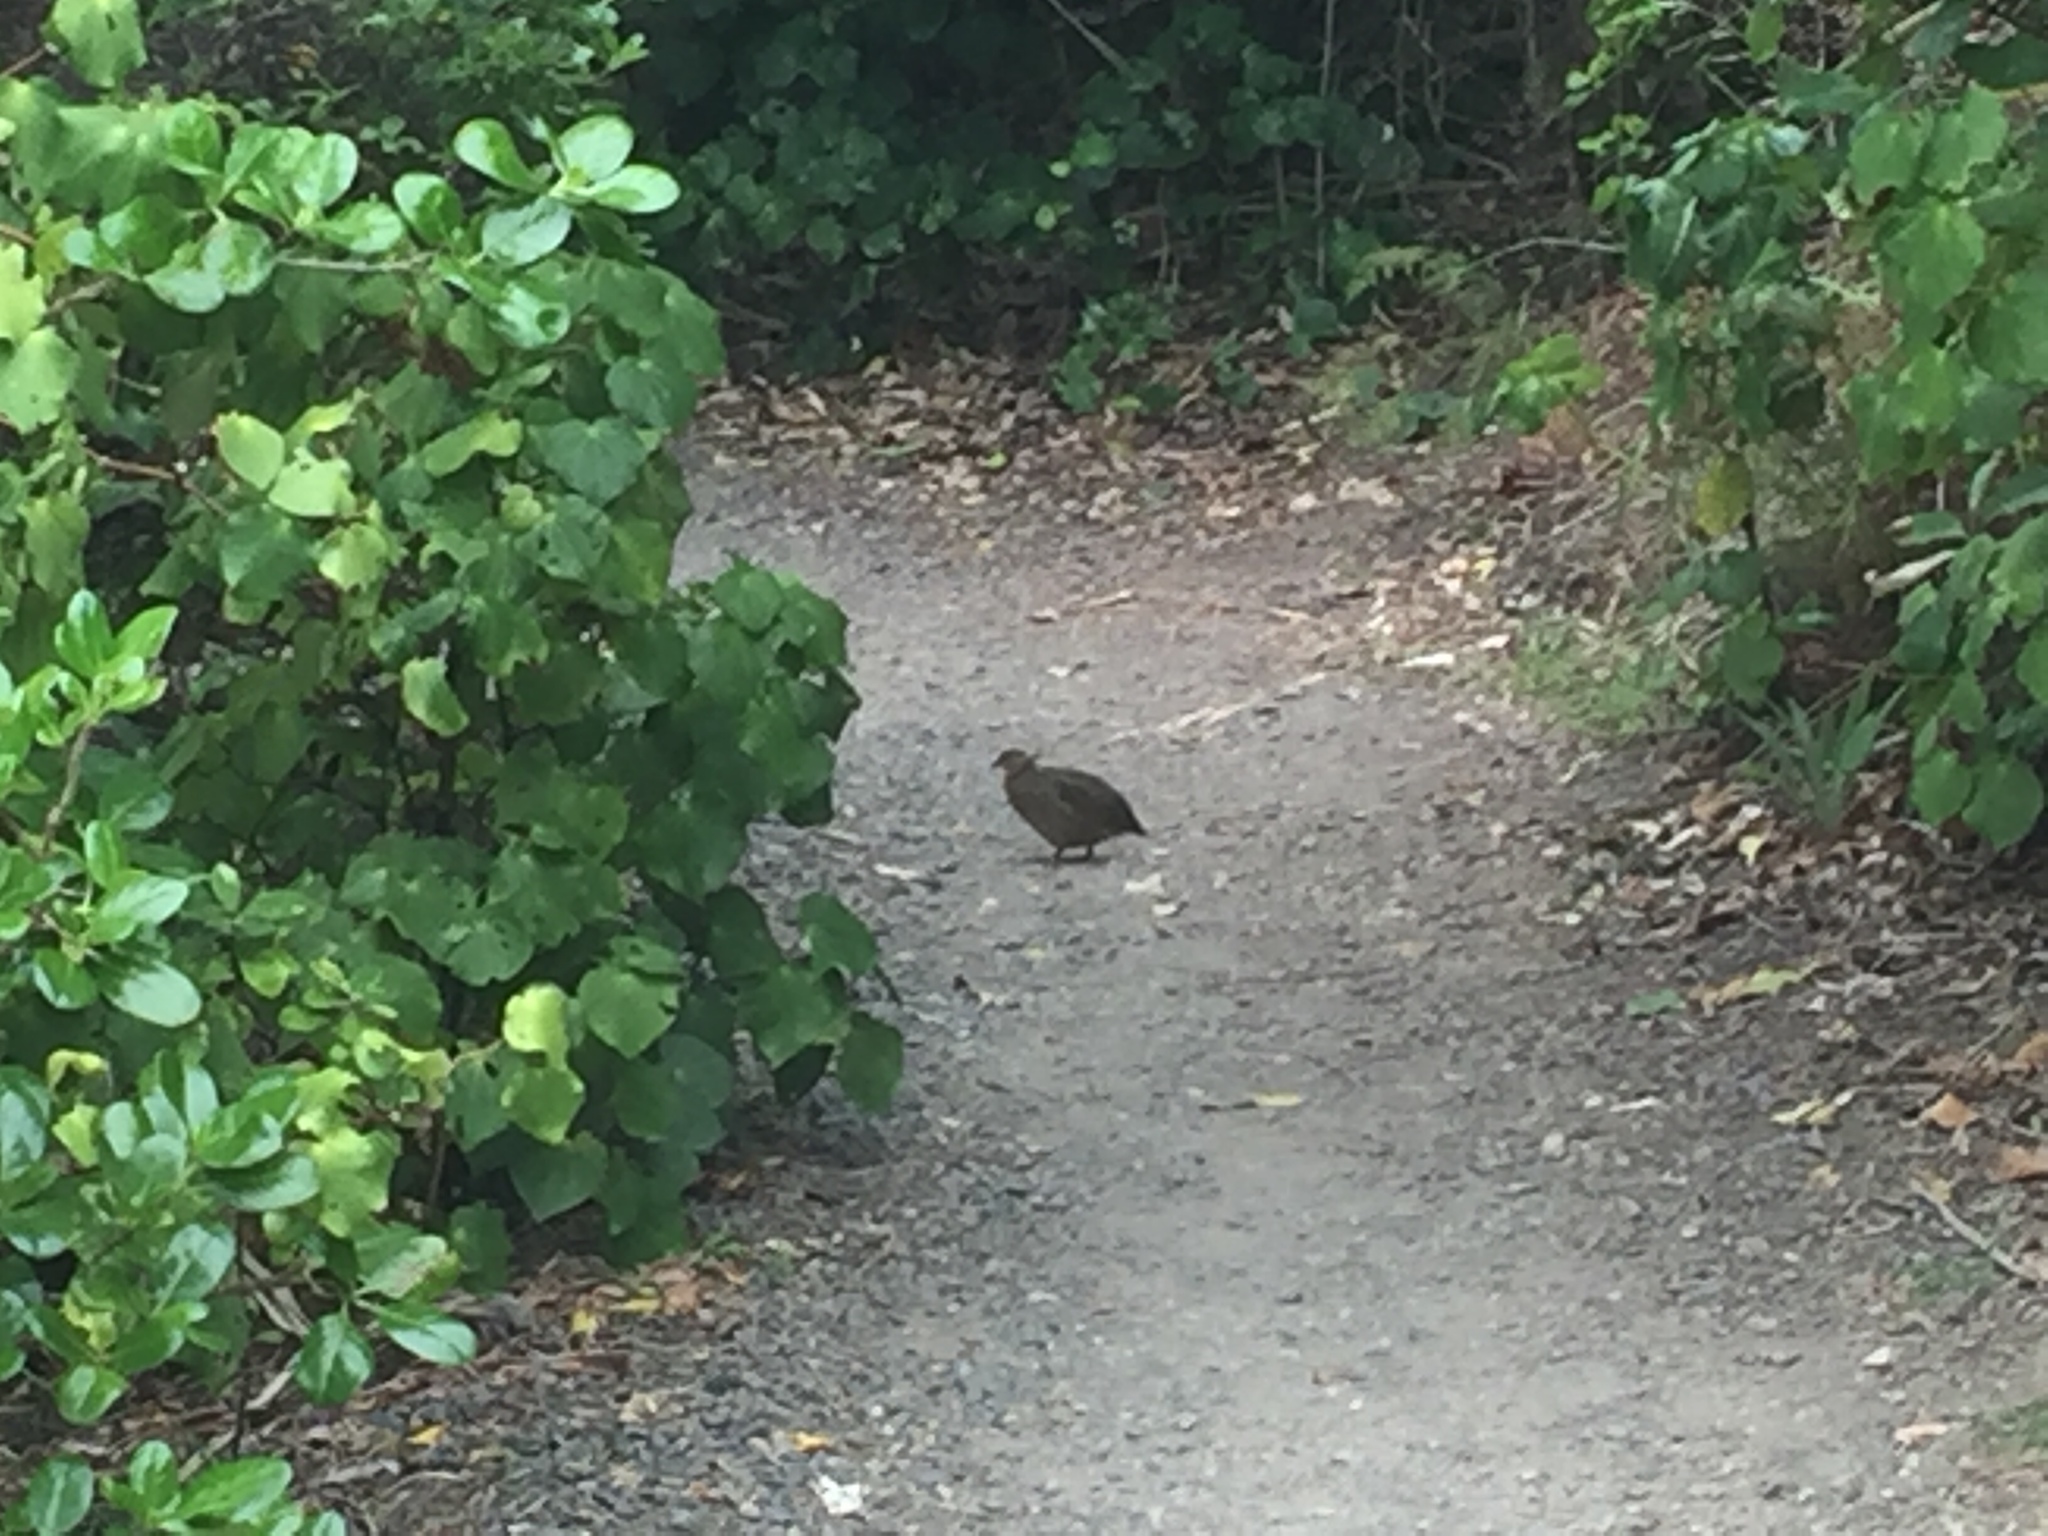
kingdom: Animalia
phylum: Chordata
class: Aves
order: Galliformes
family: Phasianidae
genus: Synoicus
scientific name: Synoicus ypsilophorus
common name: Brown quail
